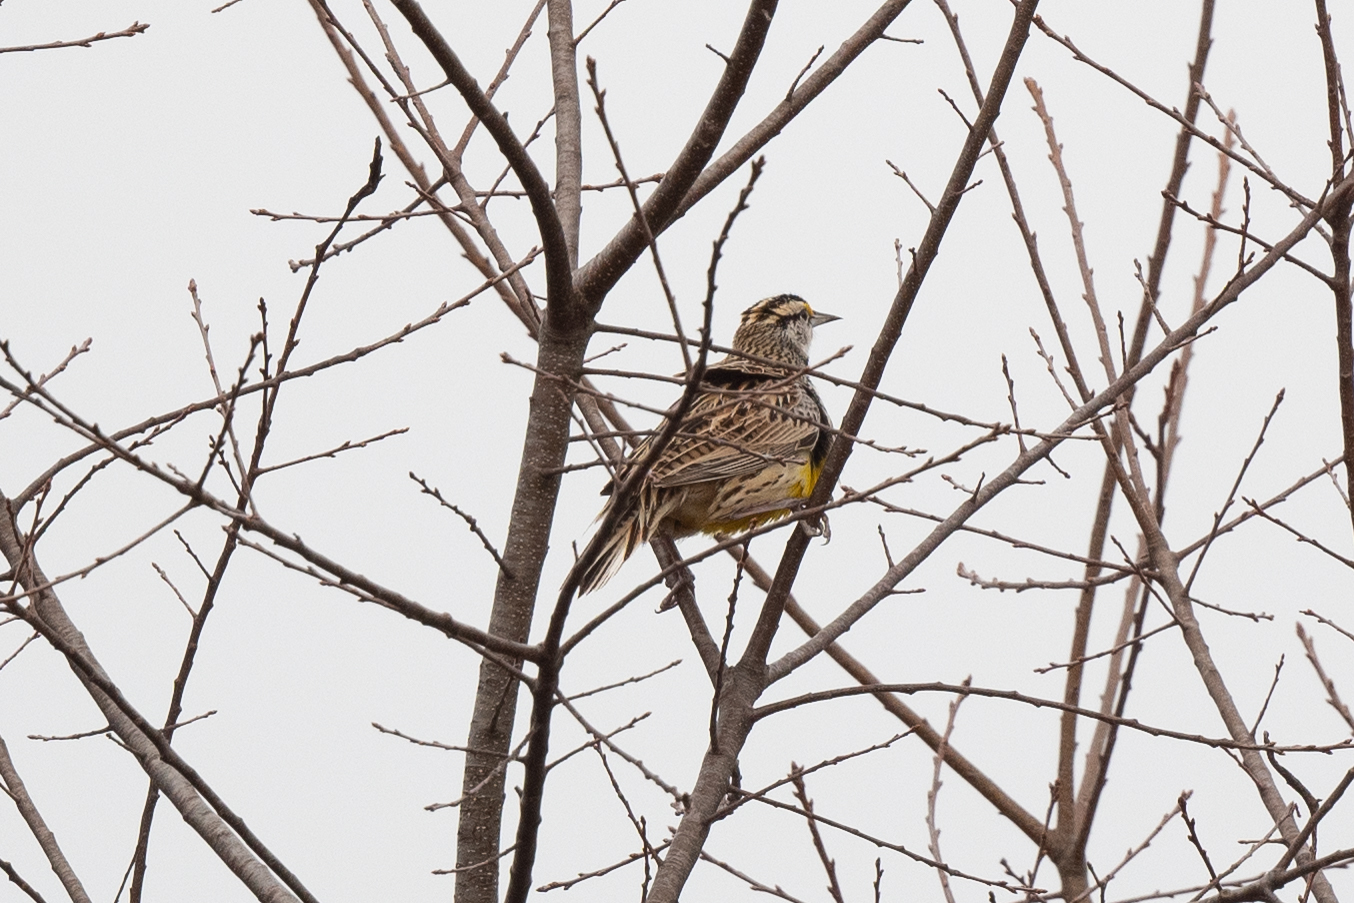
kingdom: Animalia
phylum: Chordata
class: Aves
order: Passeriformes
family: Icteridae
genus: Sturnella
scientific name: Sturnella magna
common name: Eastern meadowlark
